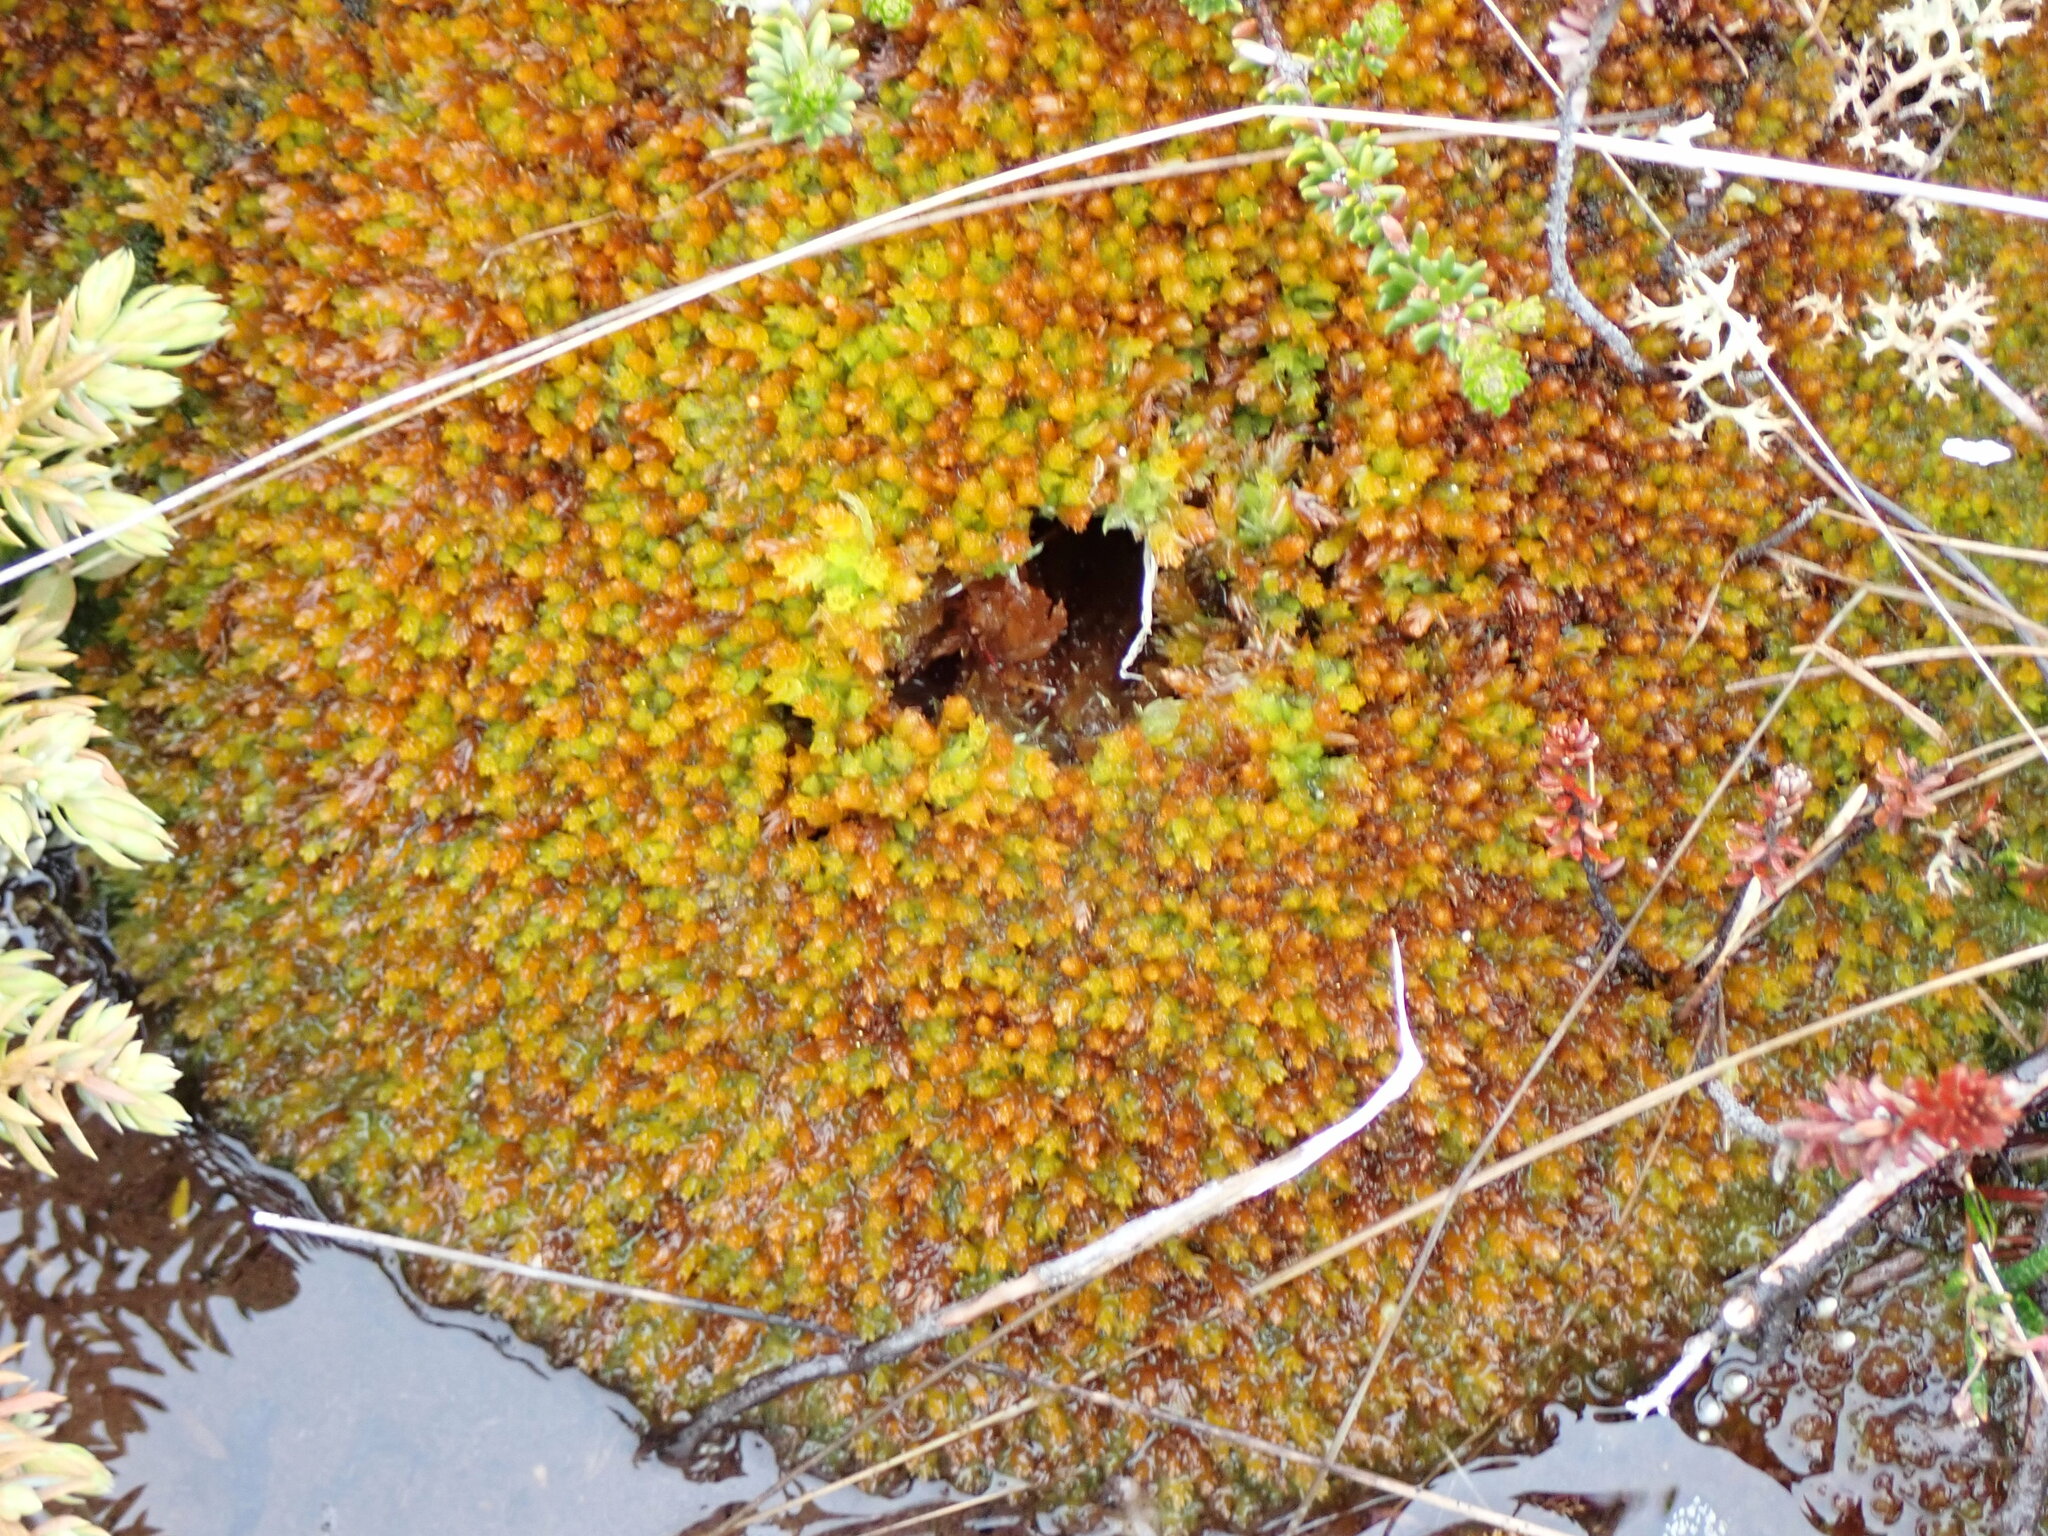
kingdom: Plantae
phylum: Bryophyta
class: Sphagnopsida
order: Sphagnales
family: Sphagnaceae
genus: Sphagnum
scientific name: Sphagnum compactum
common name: Compact peat moss
